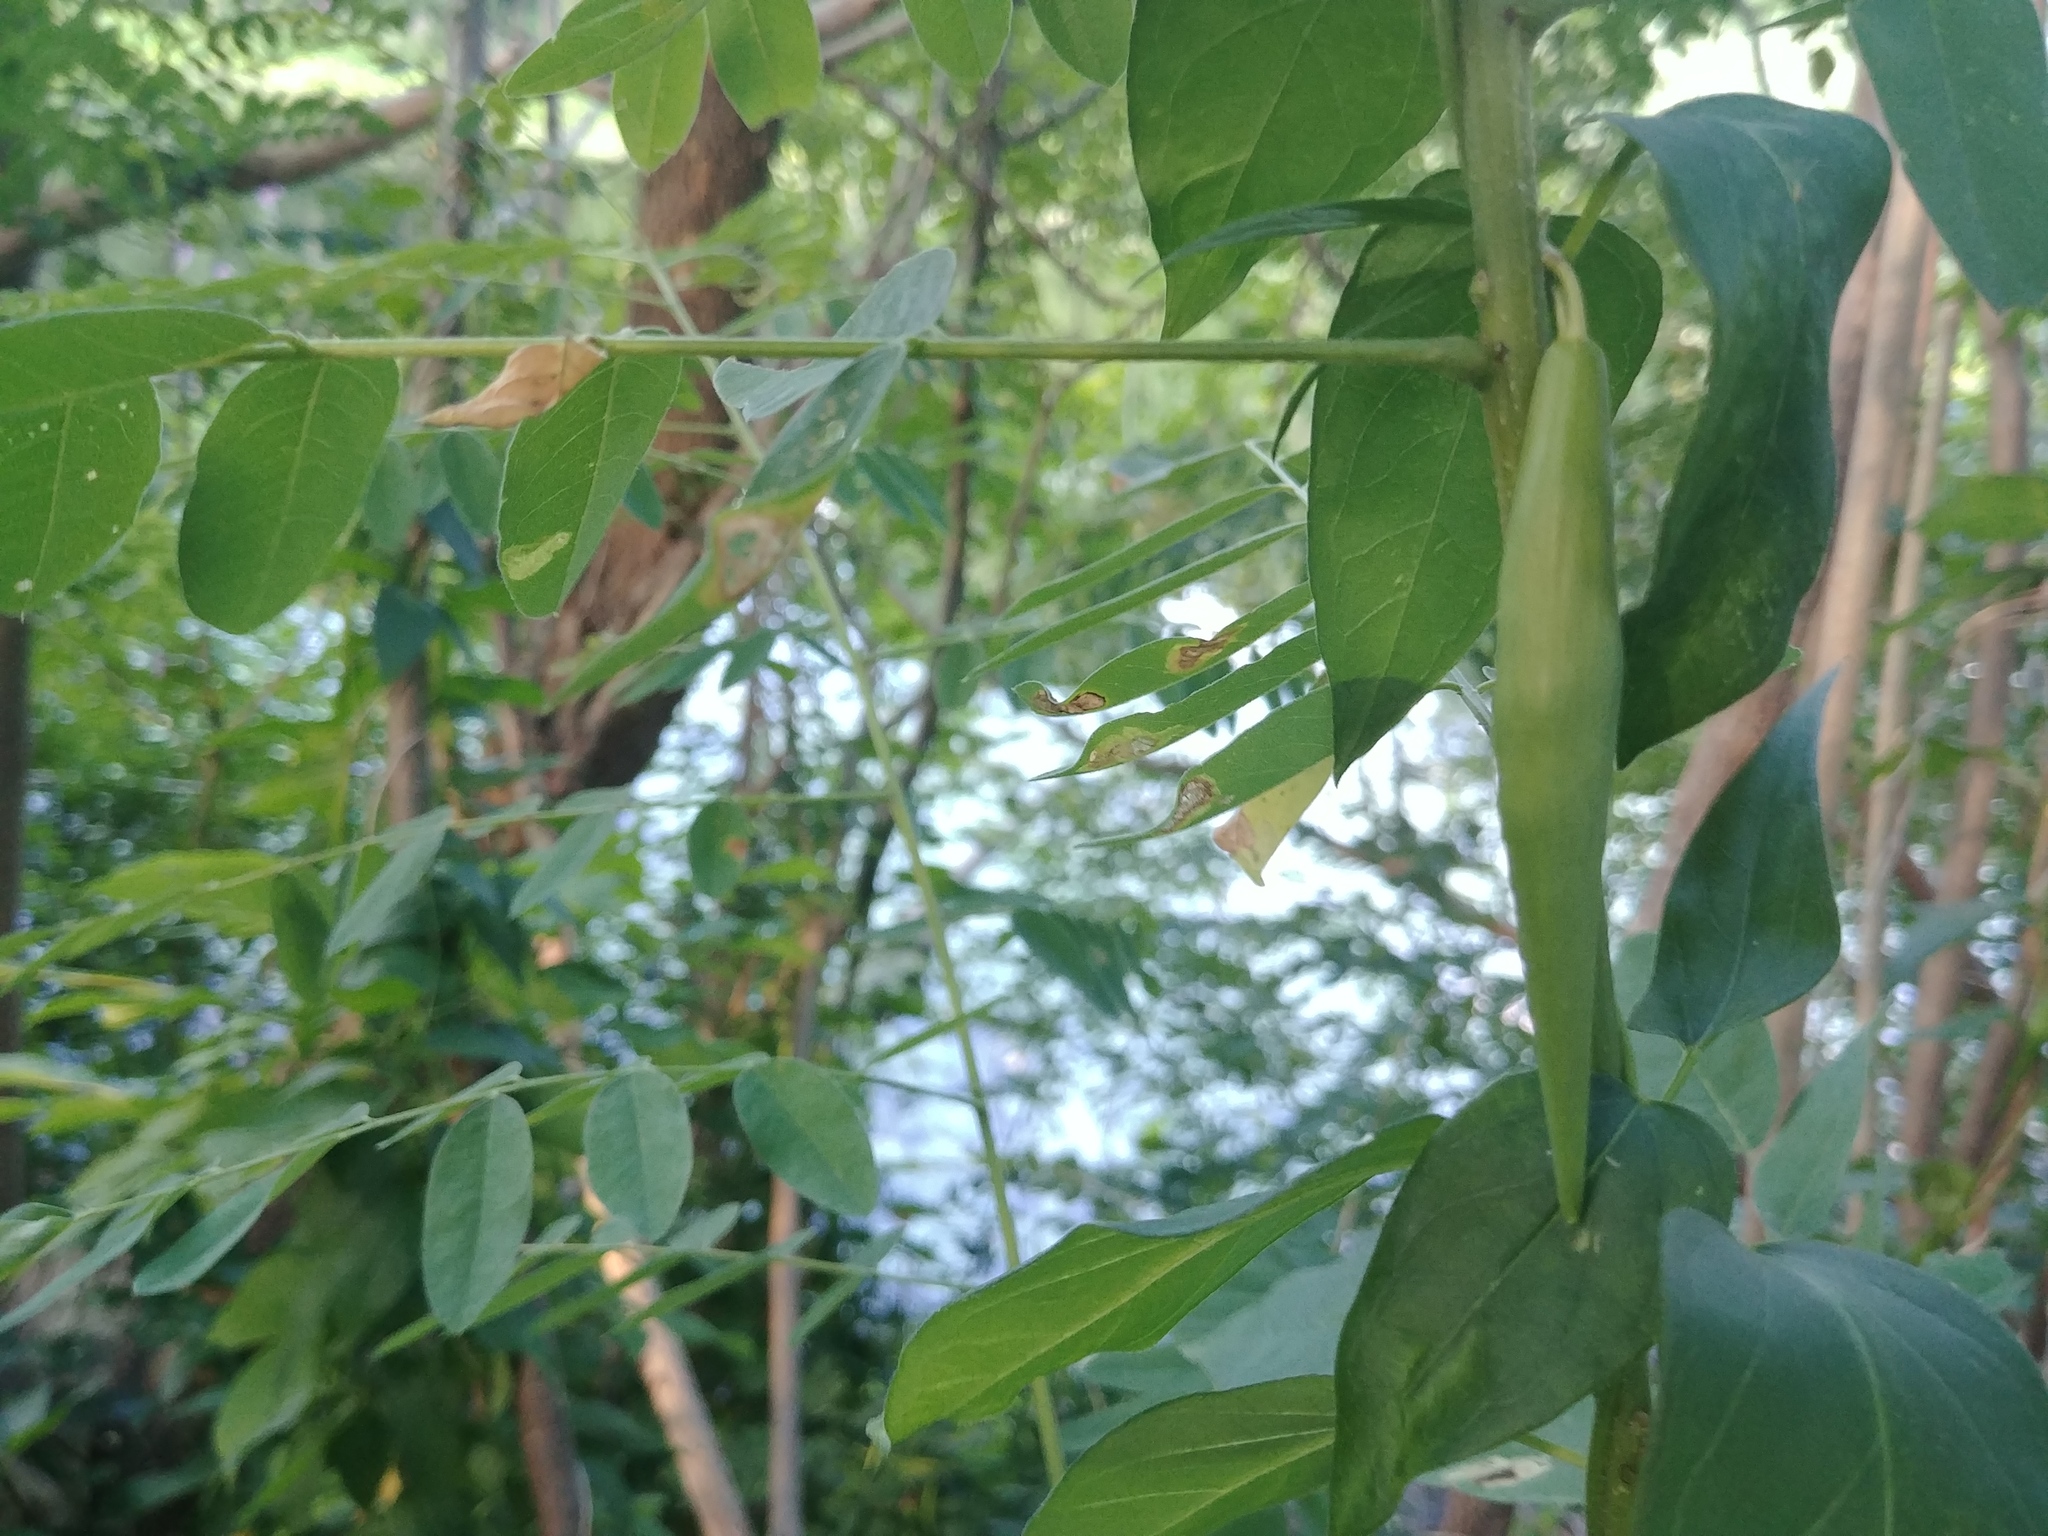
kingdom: Plantae
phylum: Tracheophyta
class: Magnoliopsida
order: Gentianales
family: Apocynaceae
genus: Vincetoxicum
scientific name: Vincetoxicum rossicum
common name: Dog-strangling vine
